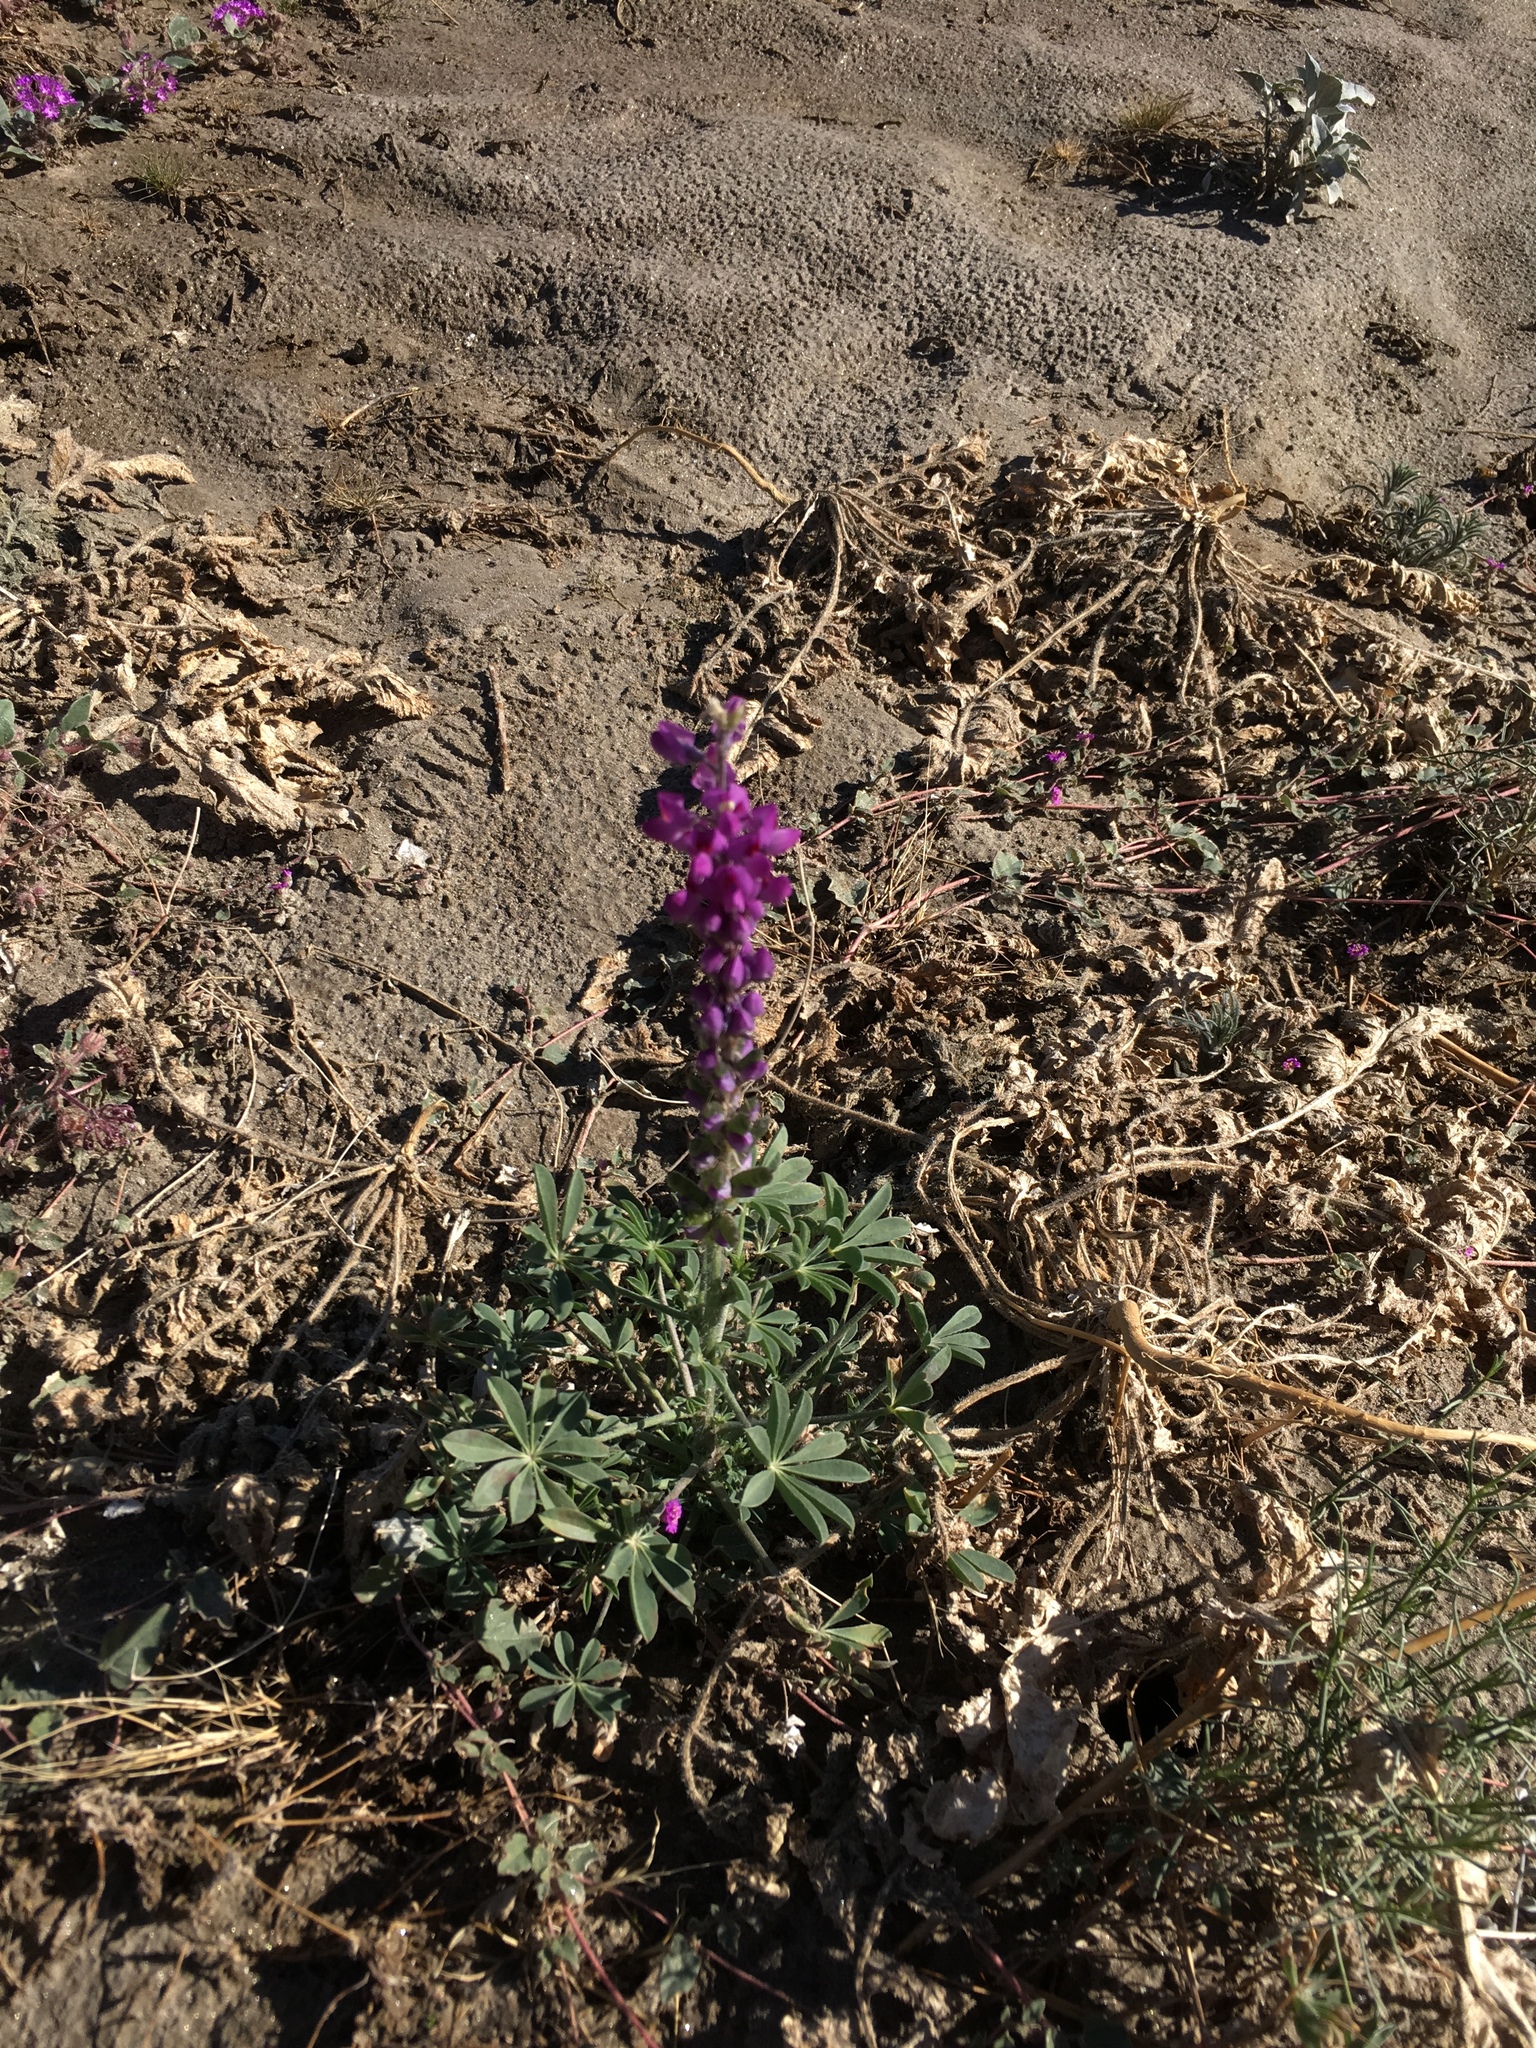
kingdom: Plantae
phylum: Tracheophyta
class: Magnoliopsida
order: Fabales
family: Fabaceae
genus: Lupinus
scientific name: Lupinus arizonicus
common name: Arizona lupine
